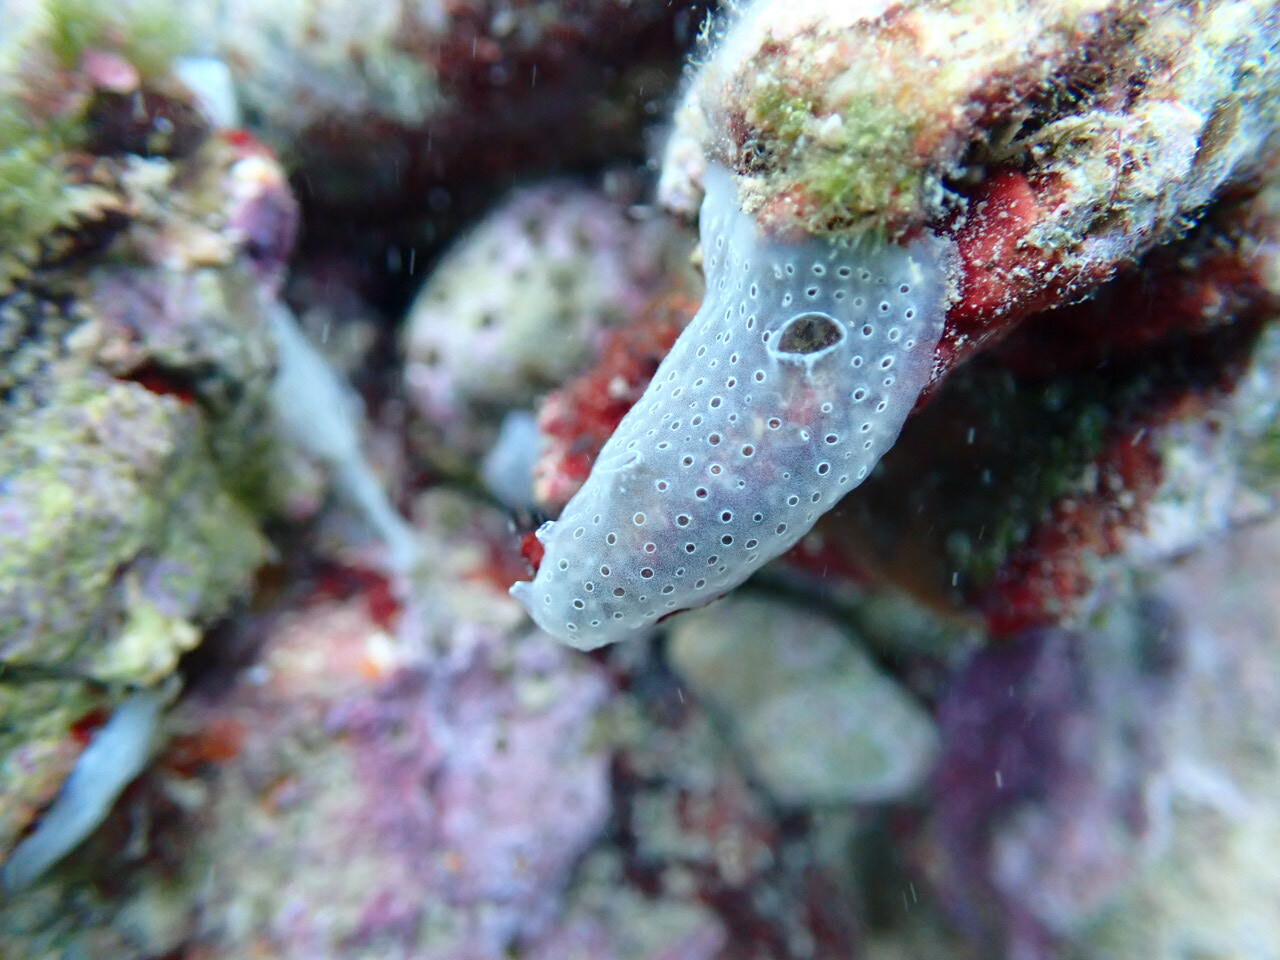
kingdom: Animalia
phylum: Chordata
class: Ascidiacea
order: Aplousobranchia
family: Didemnidae
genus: Diplosoma
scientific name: Diplosoma spongiforme
